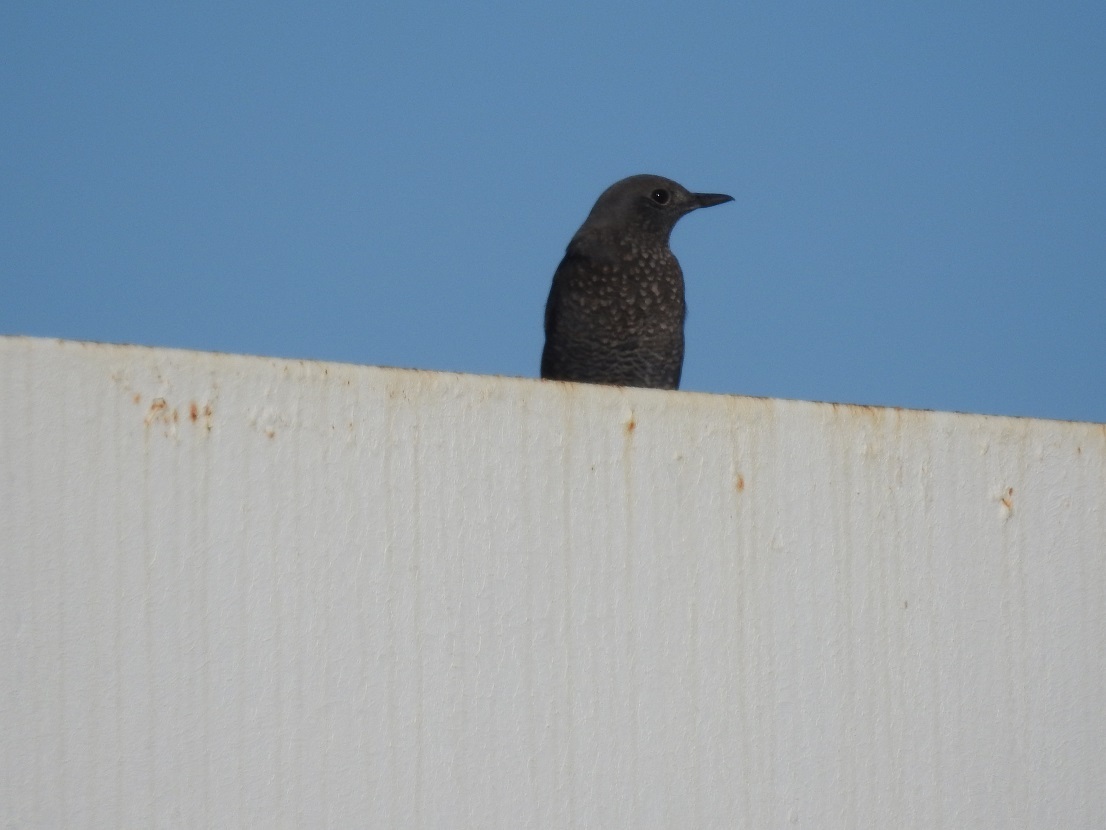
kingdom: Animalia
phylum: Chordata
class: Aves
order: Passeriformes
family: Muscicapidae
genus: Monticola
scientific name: Monticola solitarius
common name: Blue rock thrush
